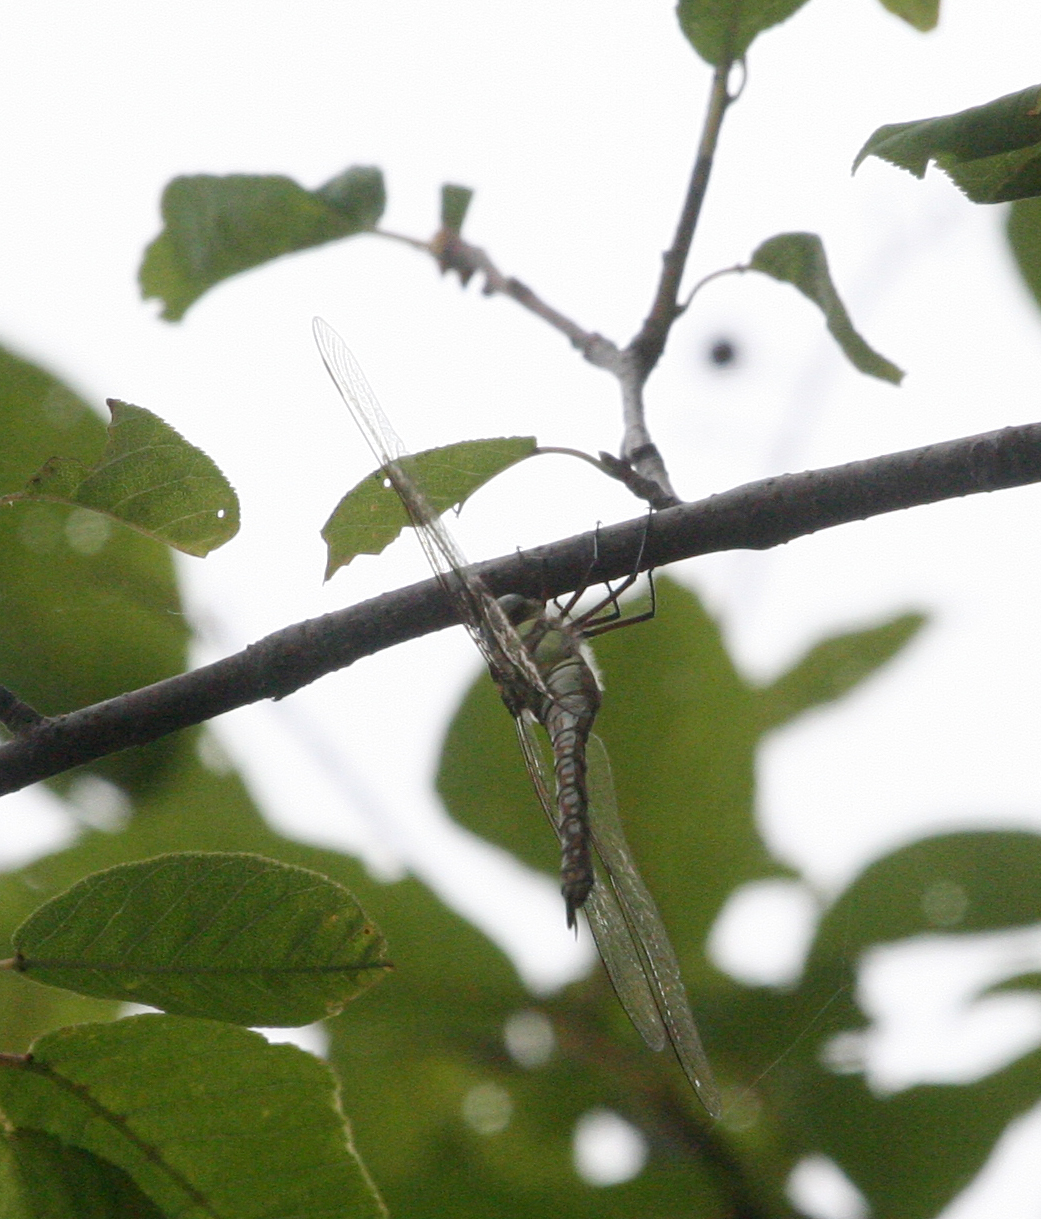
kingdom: Animalia
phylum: Arthropoda
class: Insecta
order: Odonata
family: Aeshnidae
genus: Aeshna
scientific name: Aeshna soneharai
